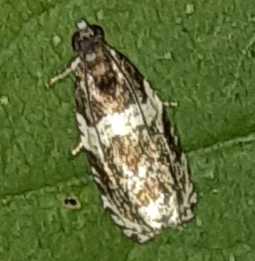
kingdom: Animalia
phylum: Arthropoda
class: Insecta
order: Lepidoptera
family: Tortricidae
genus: Olethreutes
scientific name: Olethreutes fasciatana
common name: Banded olethreutes moth
